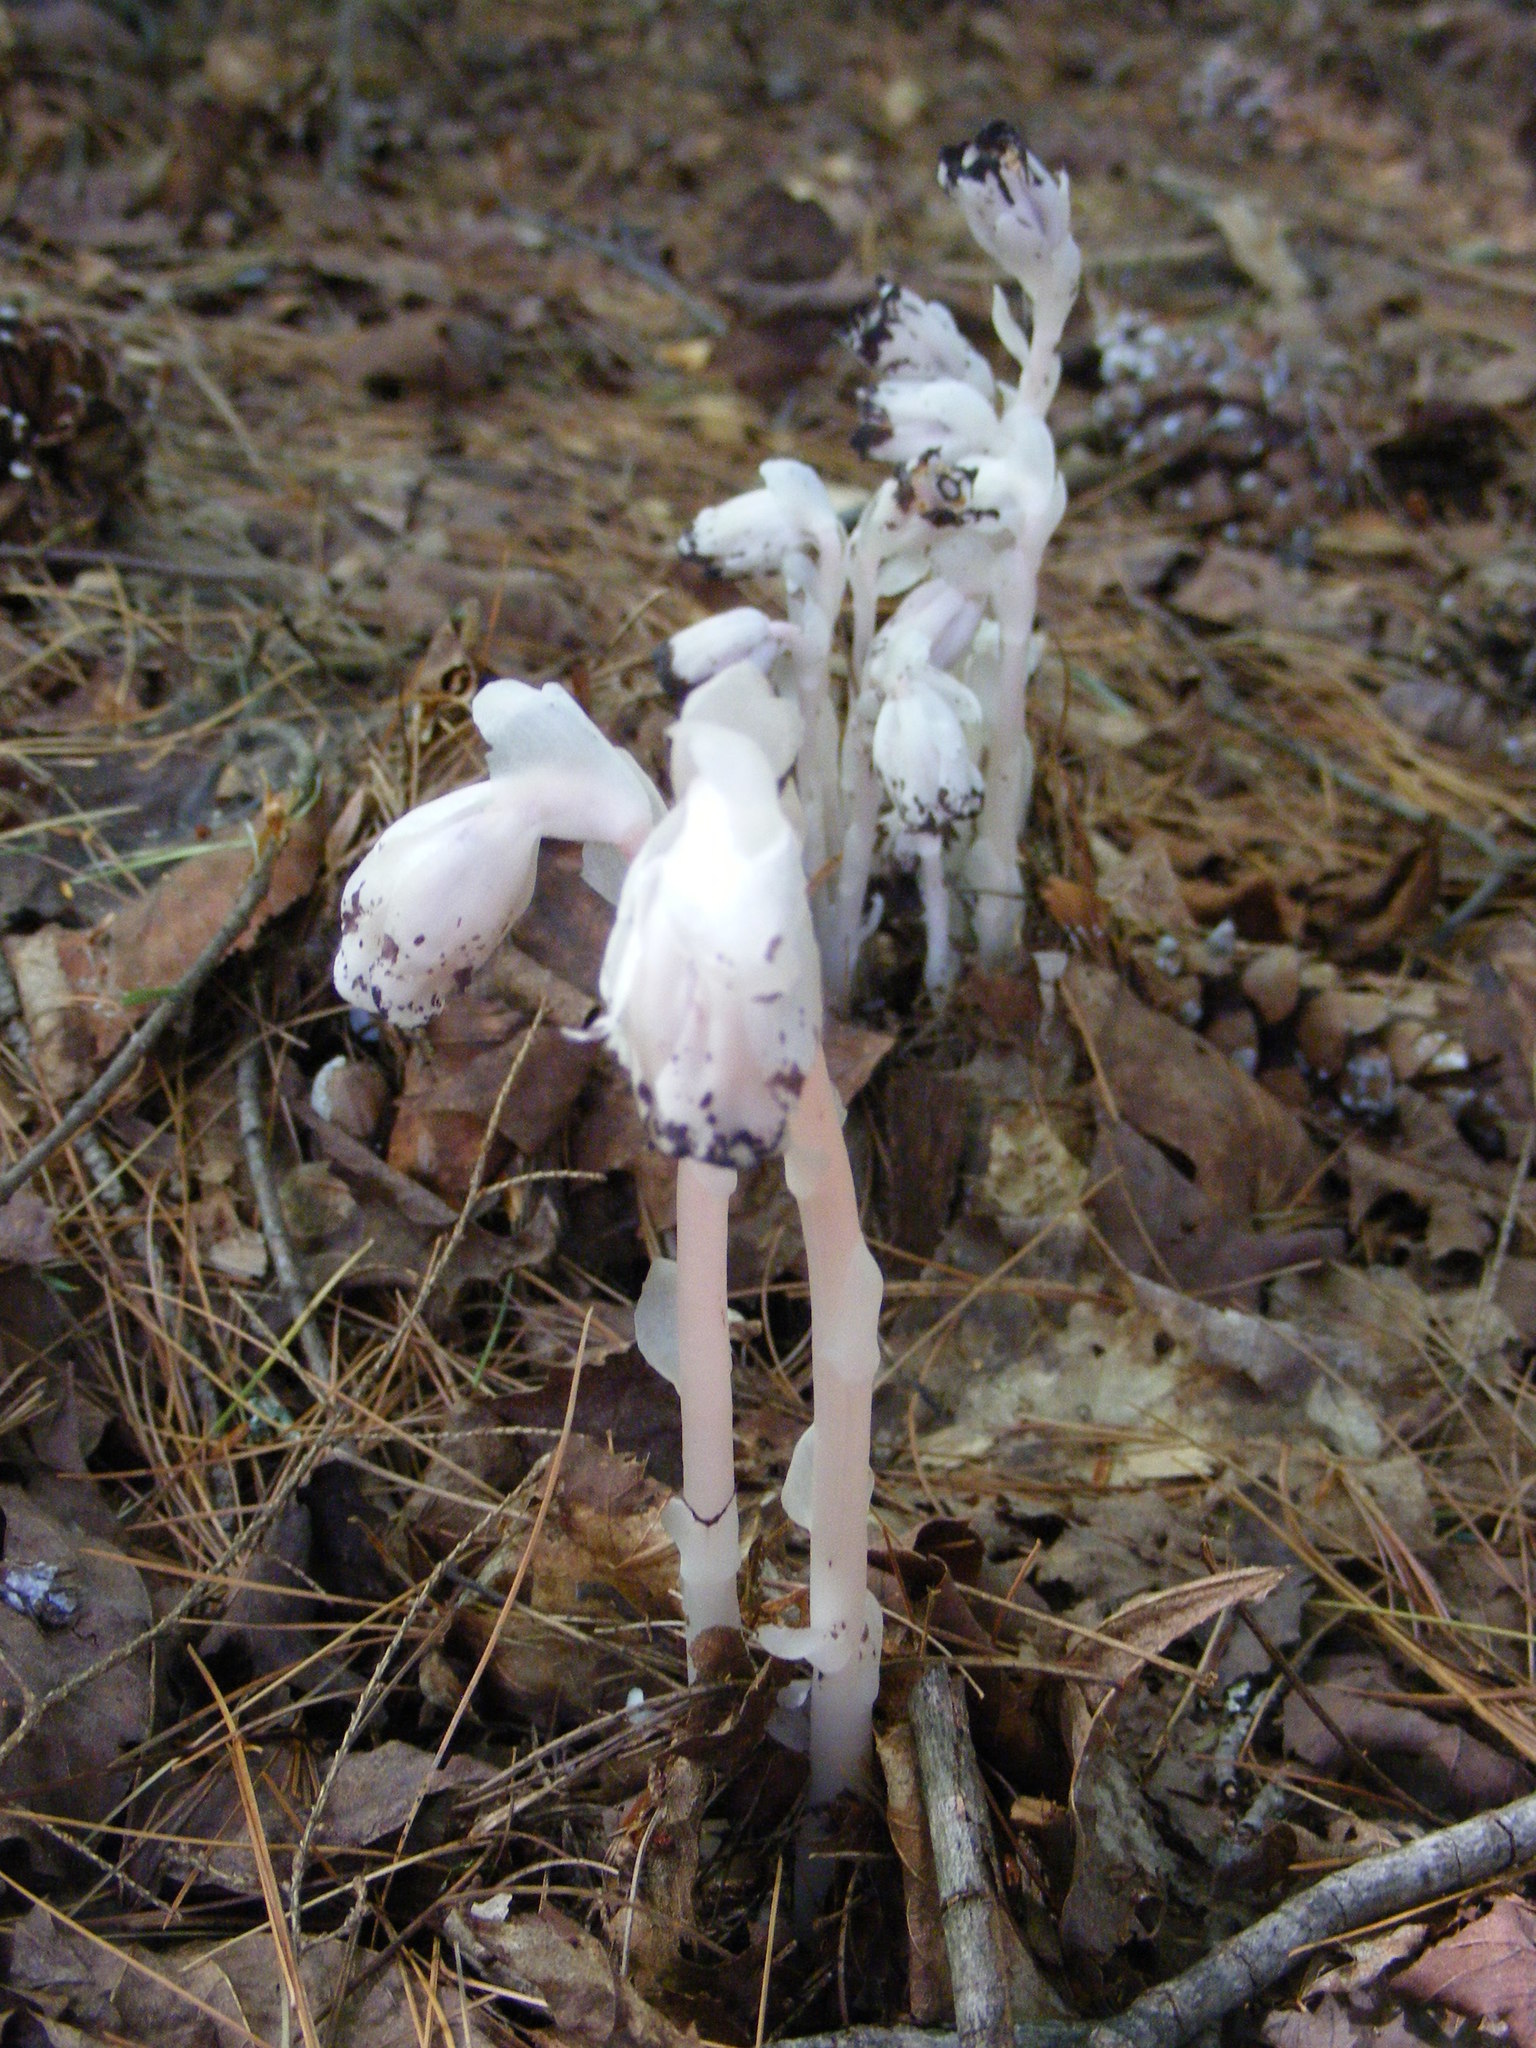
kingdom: Plantae
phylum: Tracheophyta
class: Magnoliopsida
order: Ericales
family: Ericaceae
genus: Monotropa
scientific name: Monotropa uniflora
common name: Convulsion root
